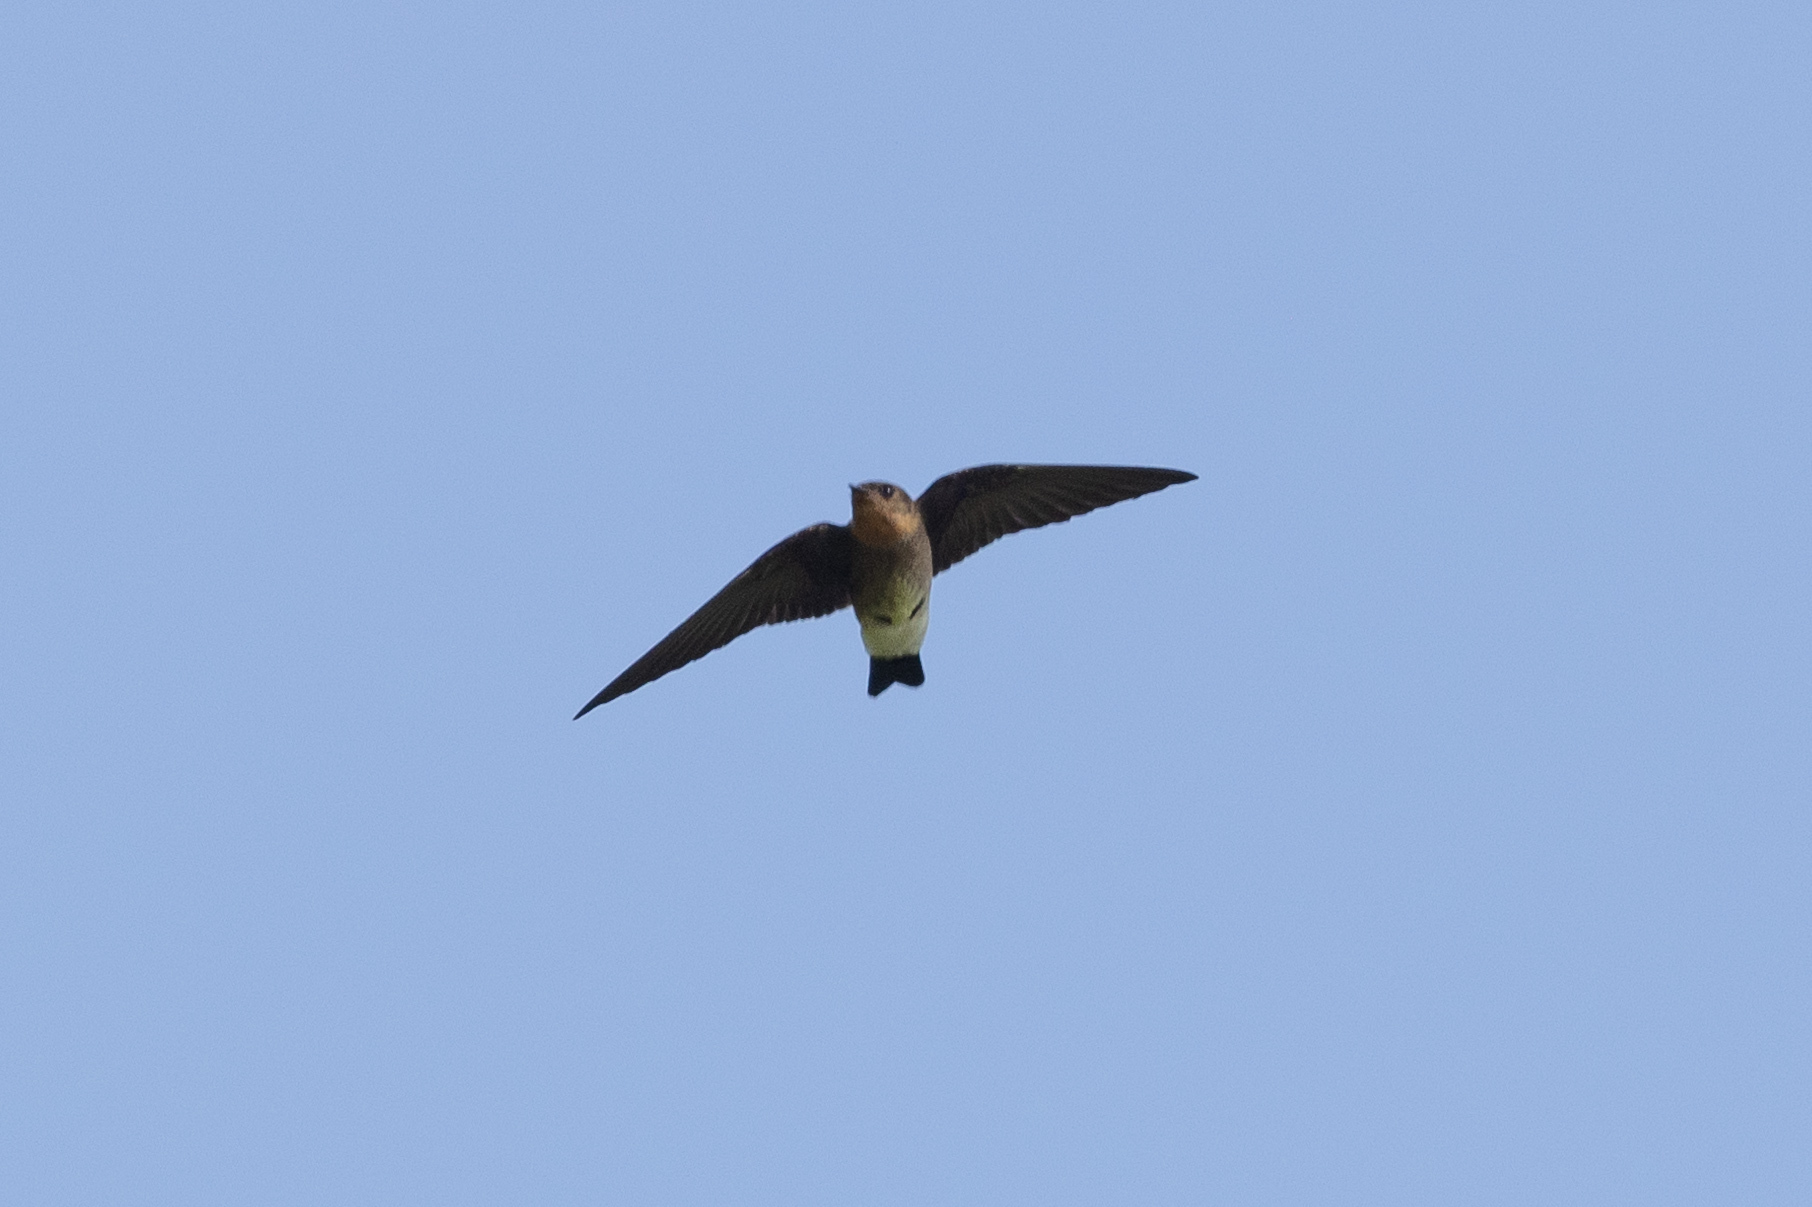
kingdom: Animalia
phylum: Chordata
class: Aves
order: Passeriformes
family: Hirundinidae
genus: Stelgidopteryx
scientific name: Stelgidopteryx ruficollis
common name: Southern rough-winged swallow
